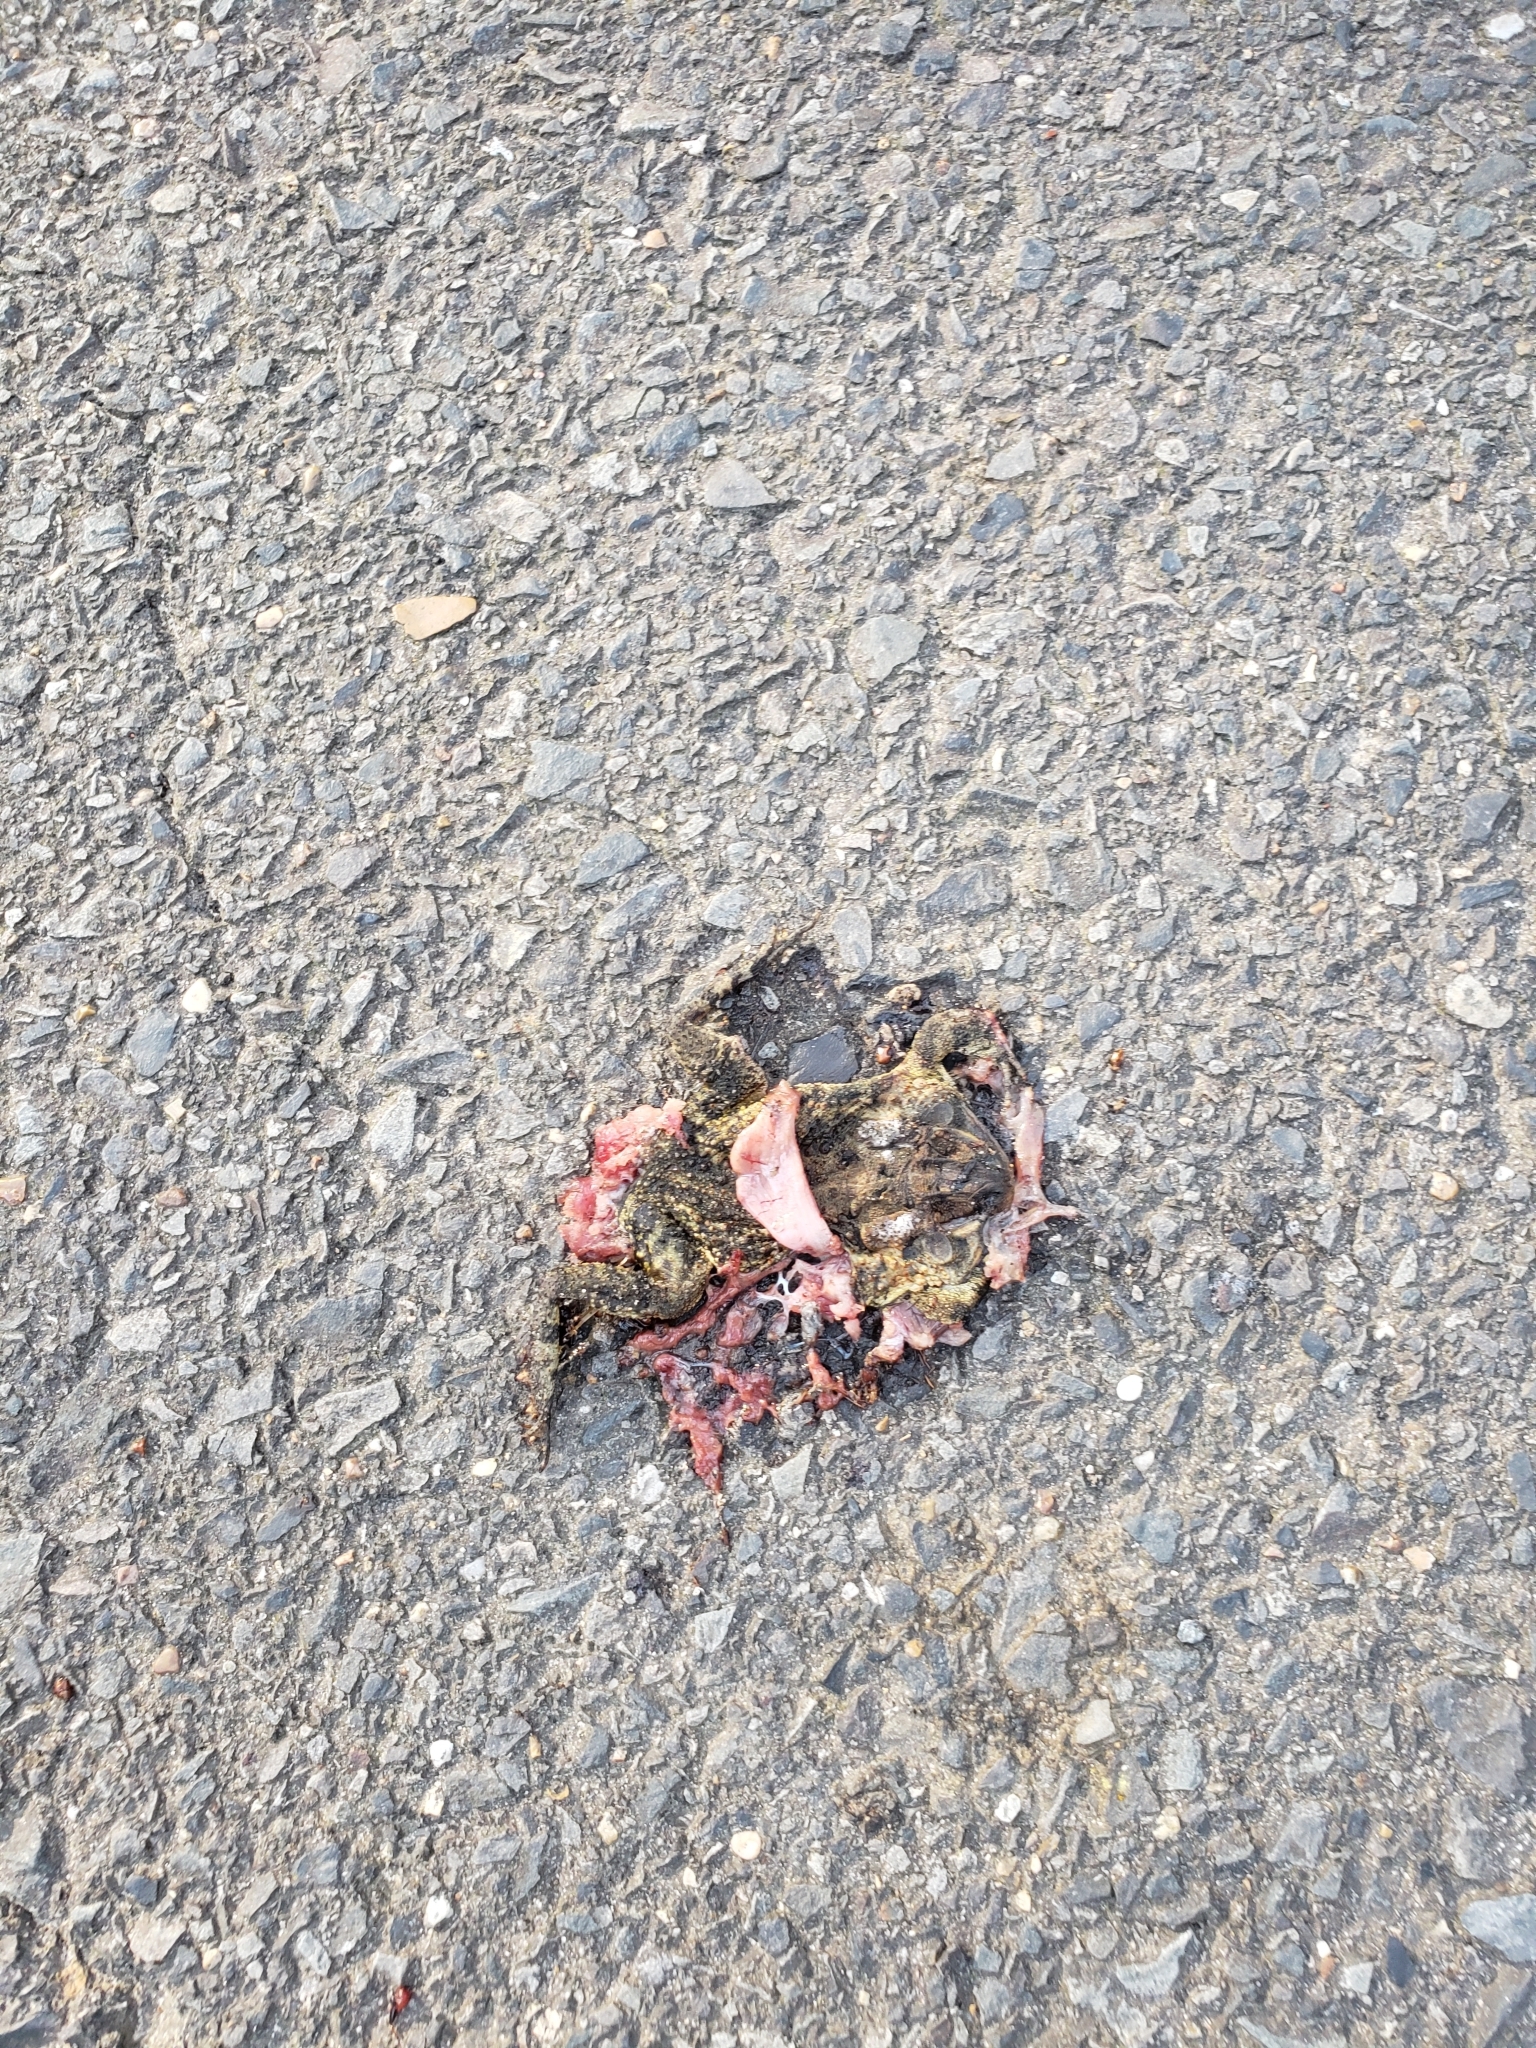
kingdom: Animalia
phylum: Chordata
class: Amphibia
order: Anura
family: Bufonidae
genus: Anaxyrus
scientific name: Anaxyrus fowleri
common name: Fowler's toad
